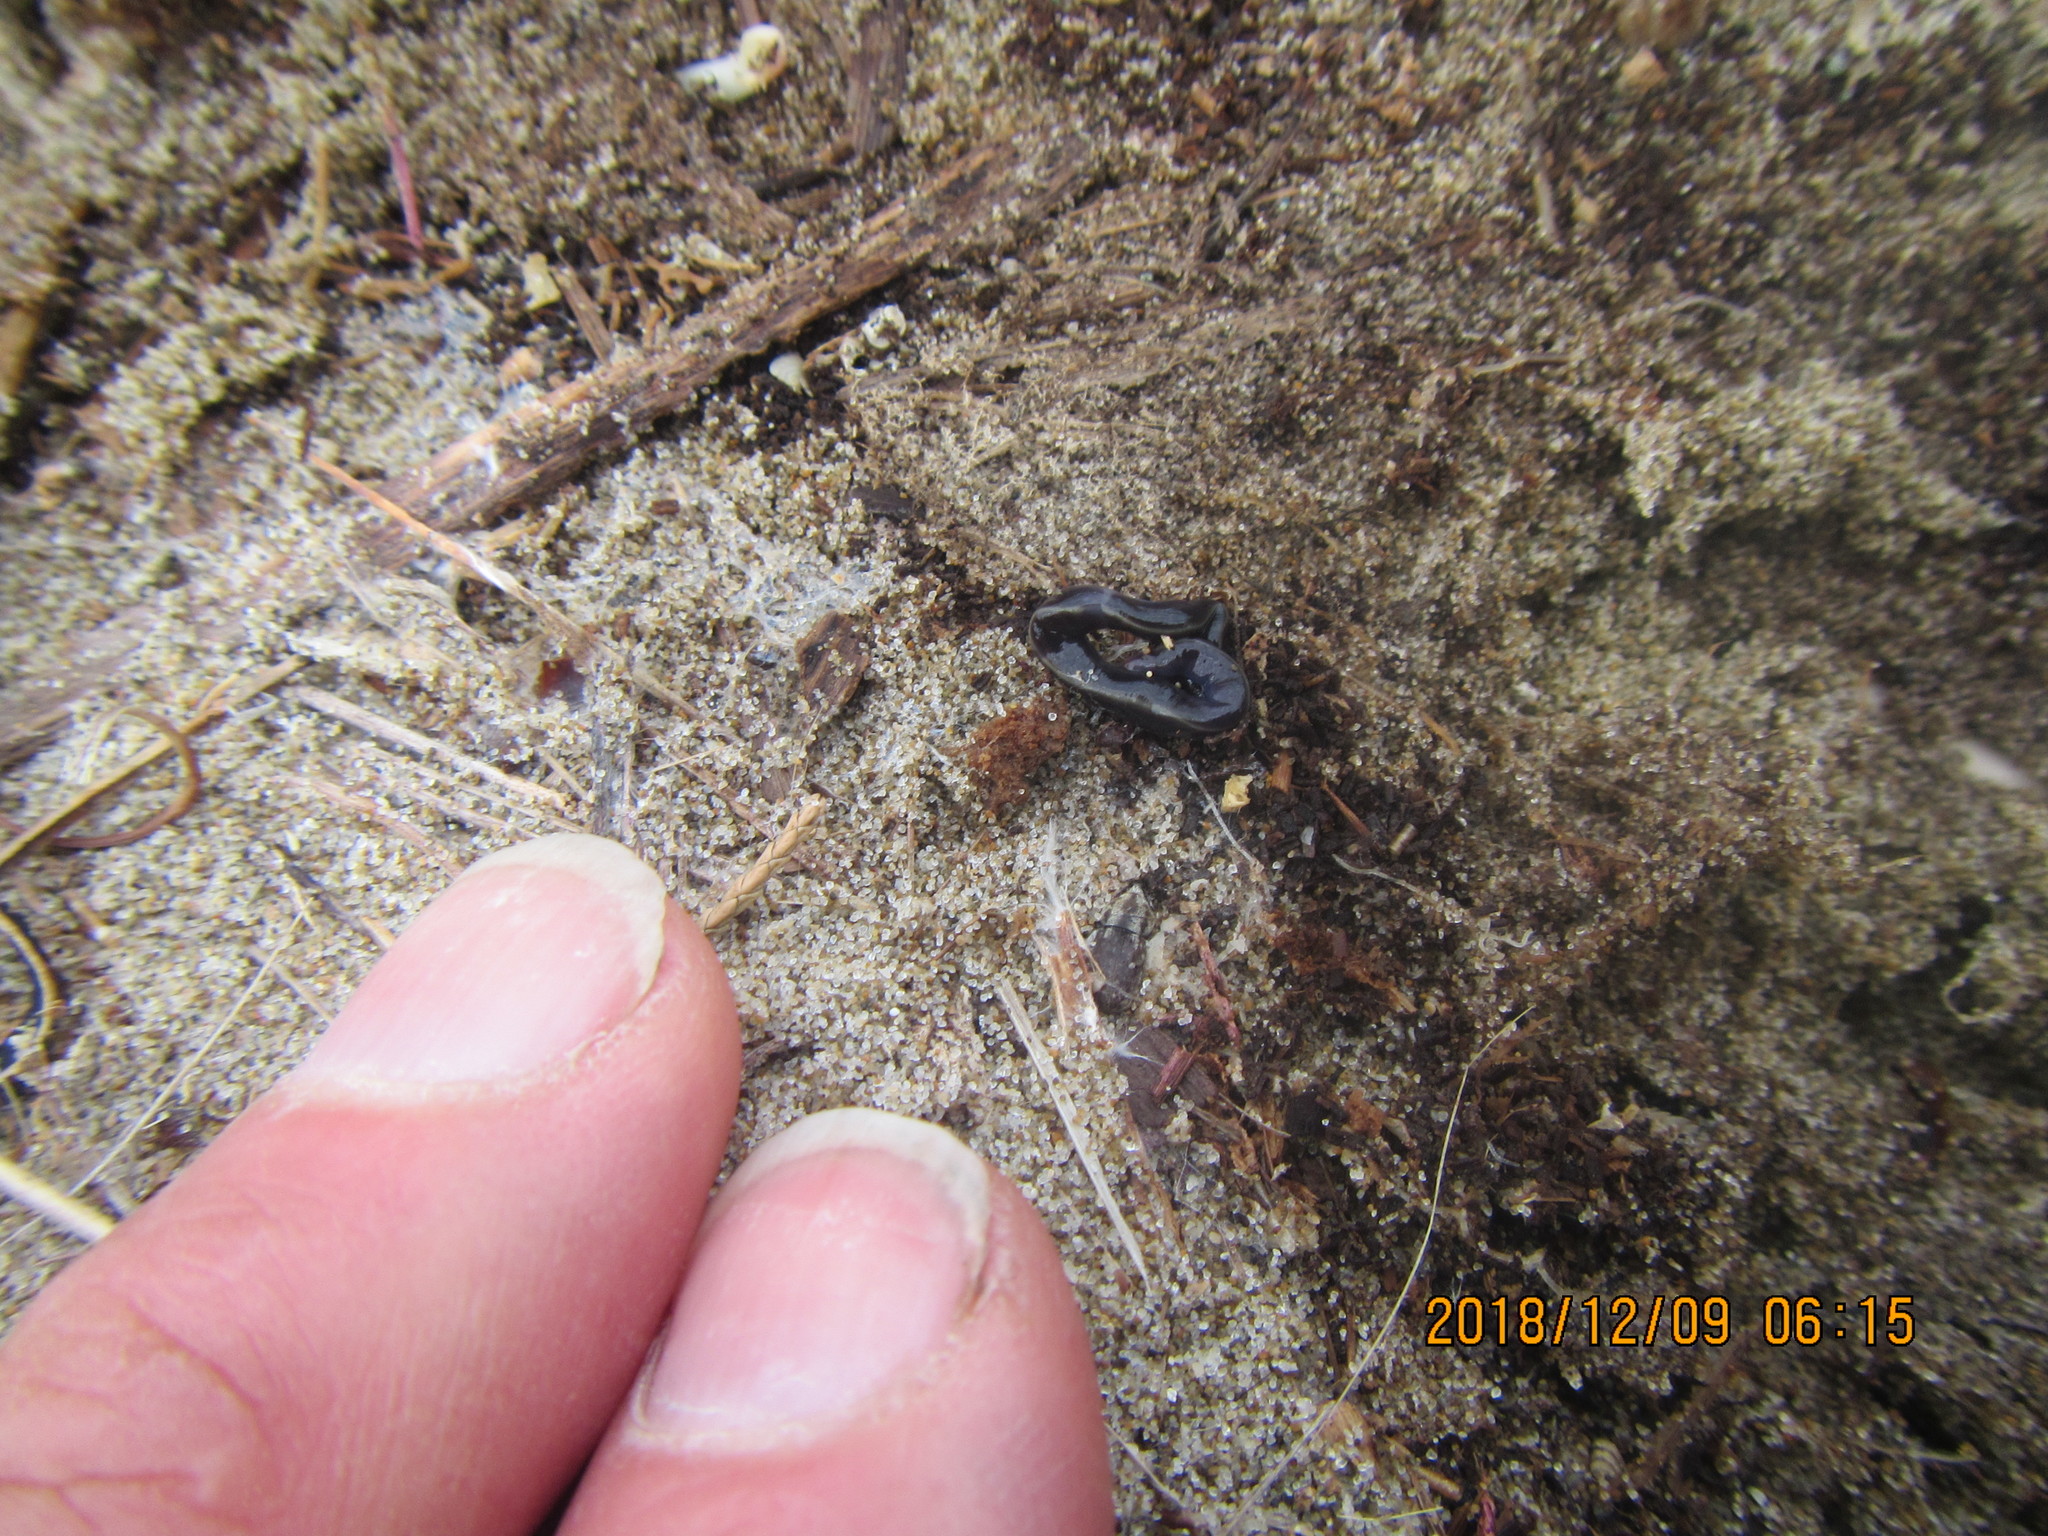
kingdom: Animalia
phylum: Platyhelminthes
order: Tricladida
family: Geoplanidae
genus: Caenoplana
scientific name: Caenoplana coerulea
